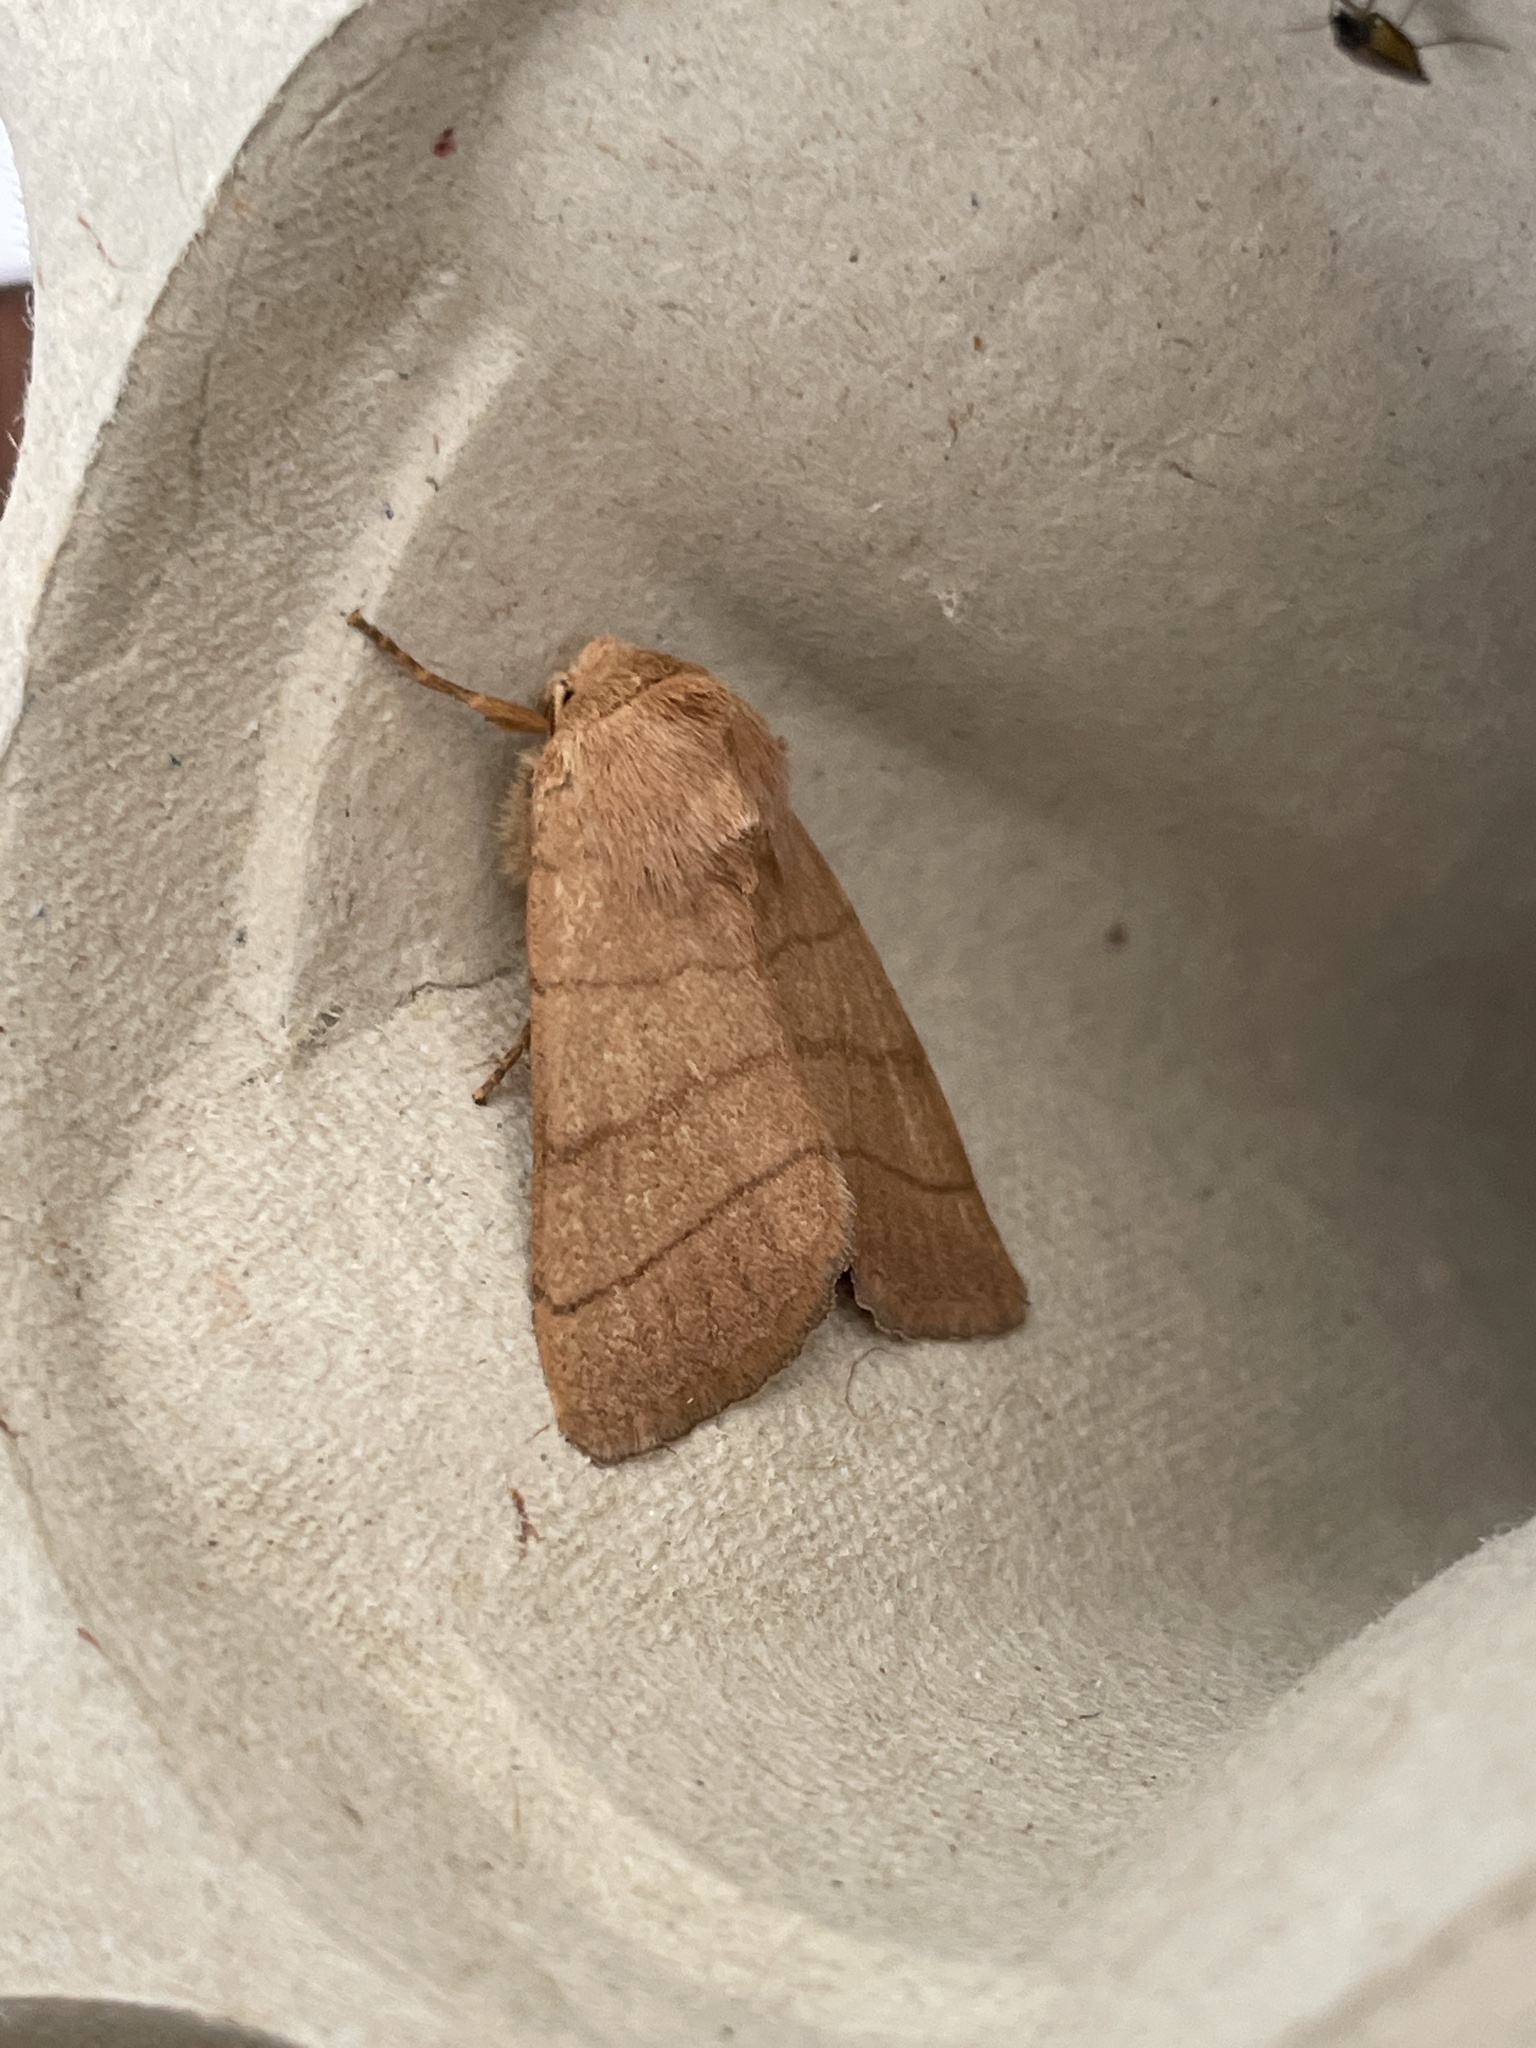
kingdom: Animalia
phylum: Arthropoda
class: Insecta
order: Lepidoptera
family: Noctuidae
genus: Charanyca
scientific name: Charanyca trigrammica
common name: Treble lines
